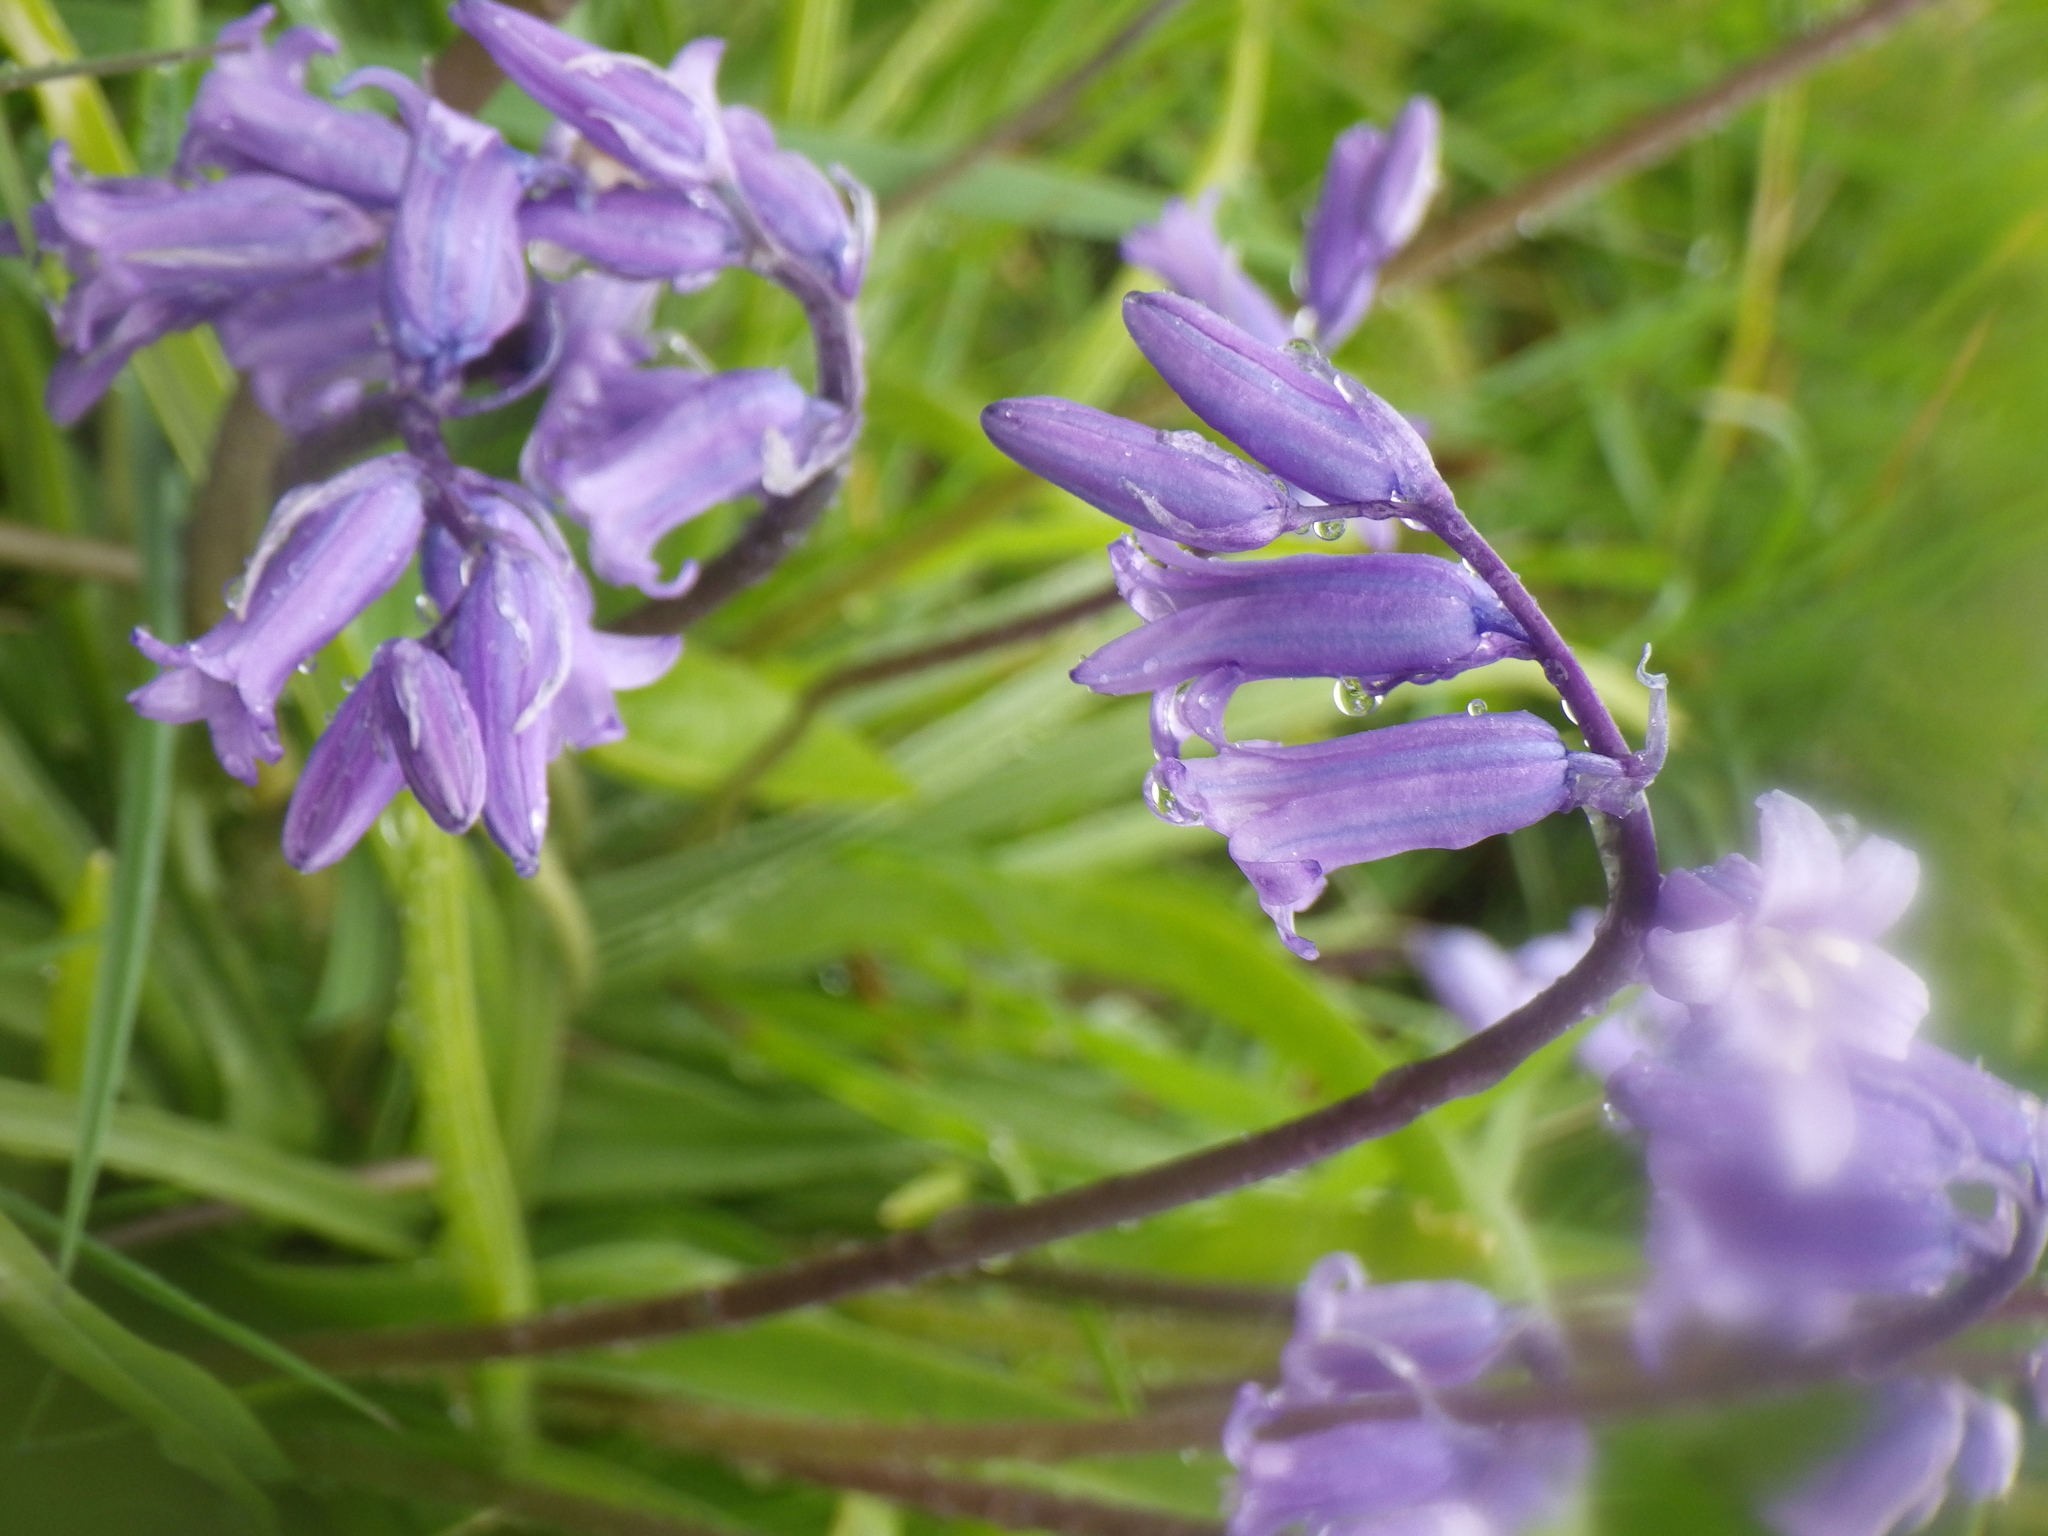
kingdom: Plantae
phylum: Tracheophyta
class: Liliopsida
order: Asparagales
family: Asparagaceae
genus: Hyacinthoides
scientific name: Hyacinthoides non-scripta
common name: Bluebell
